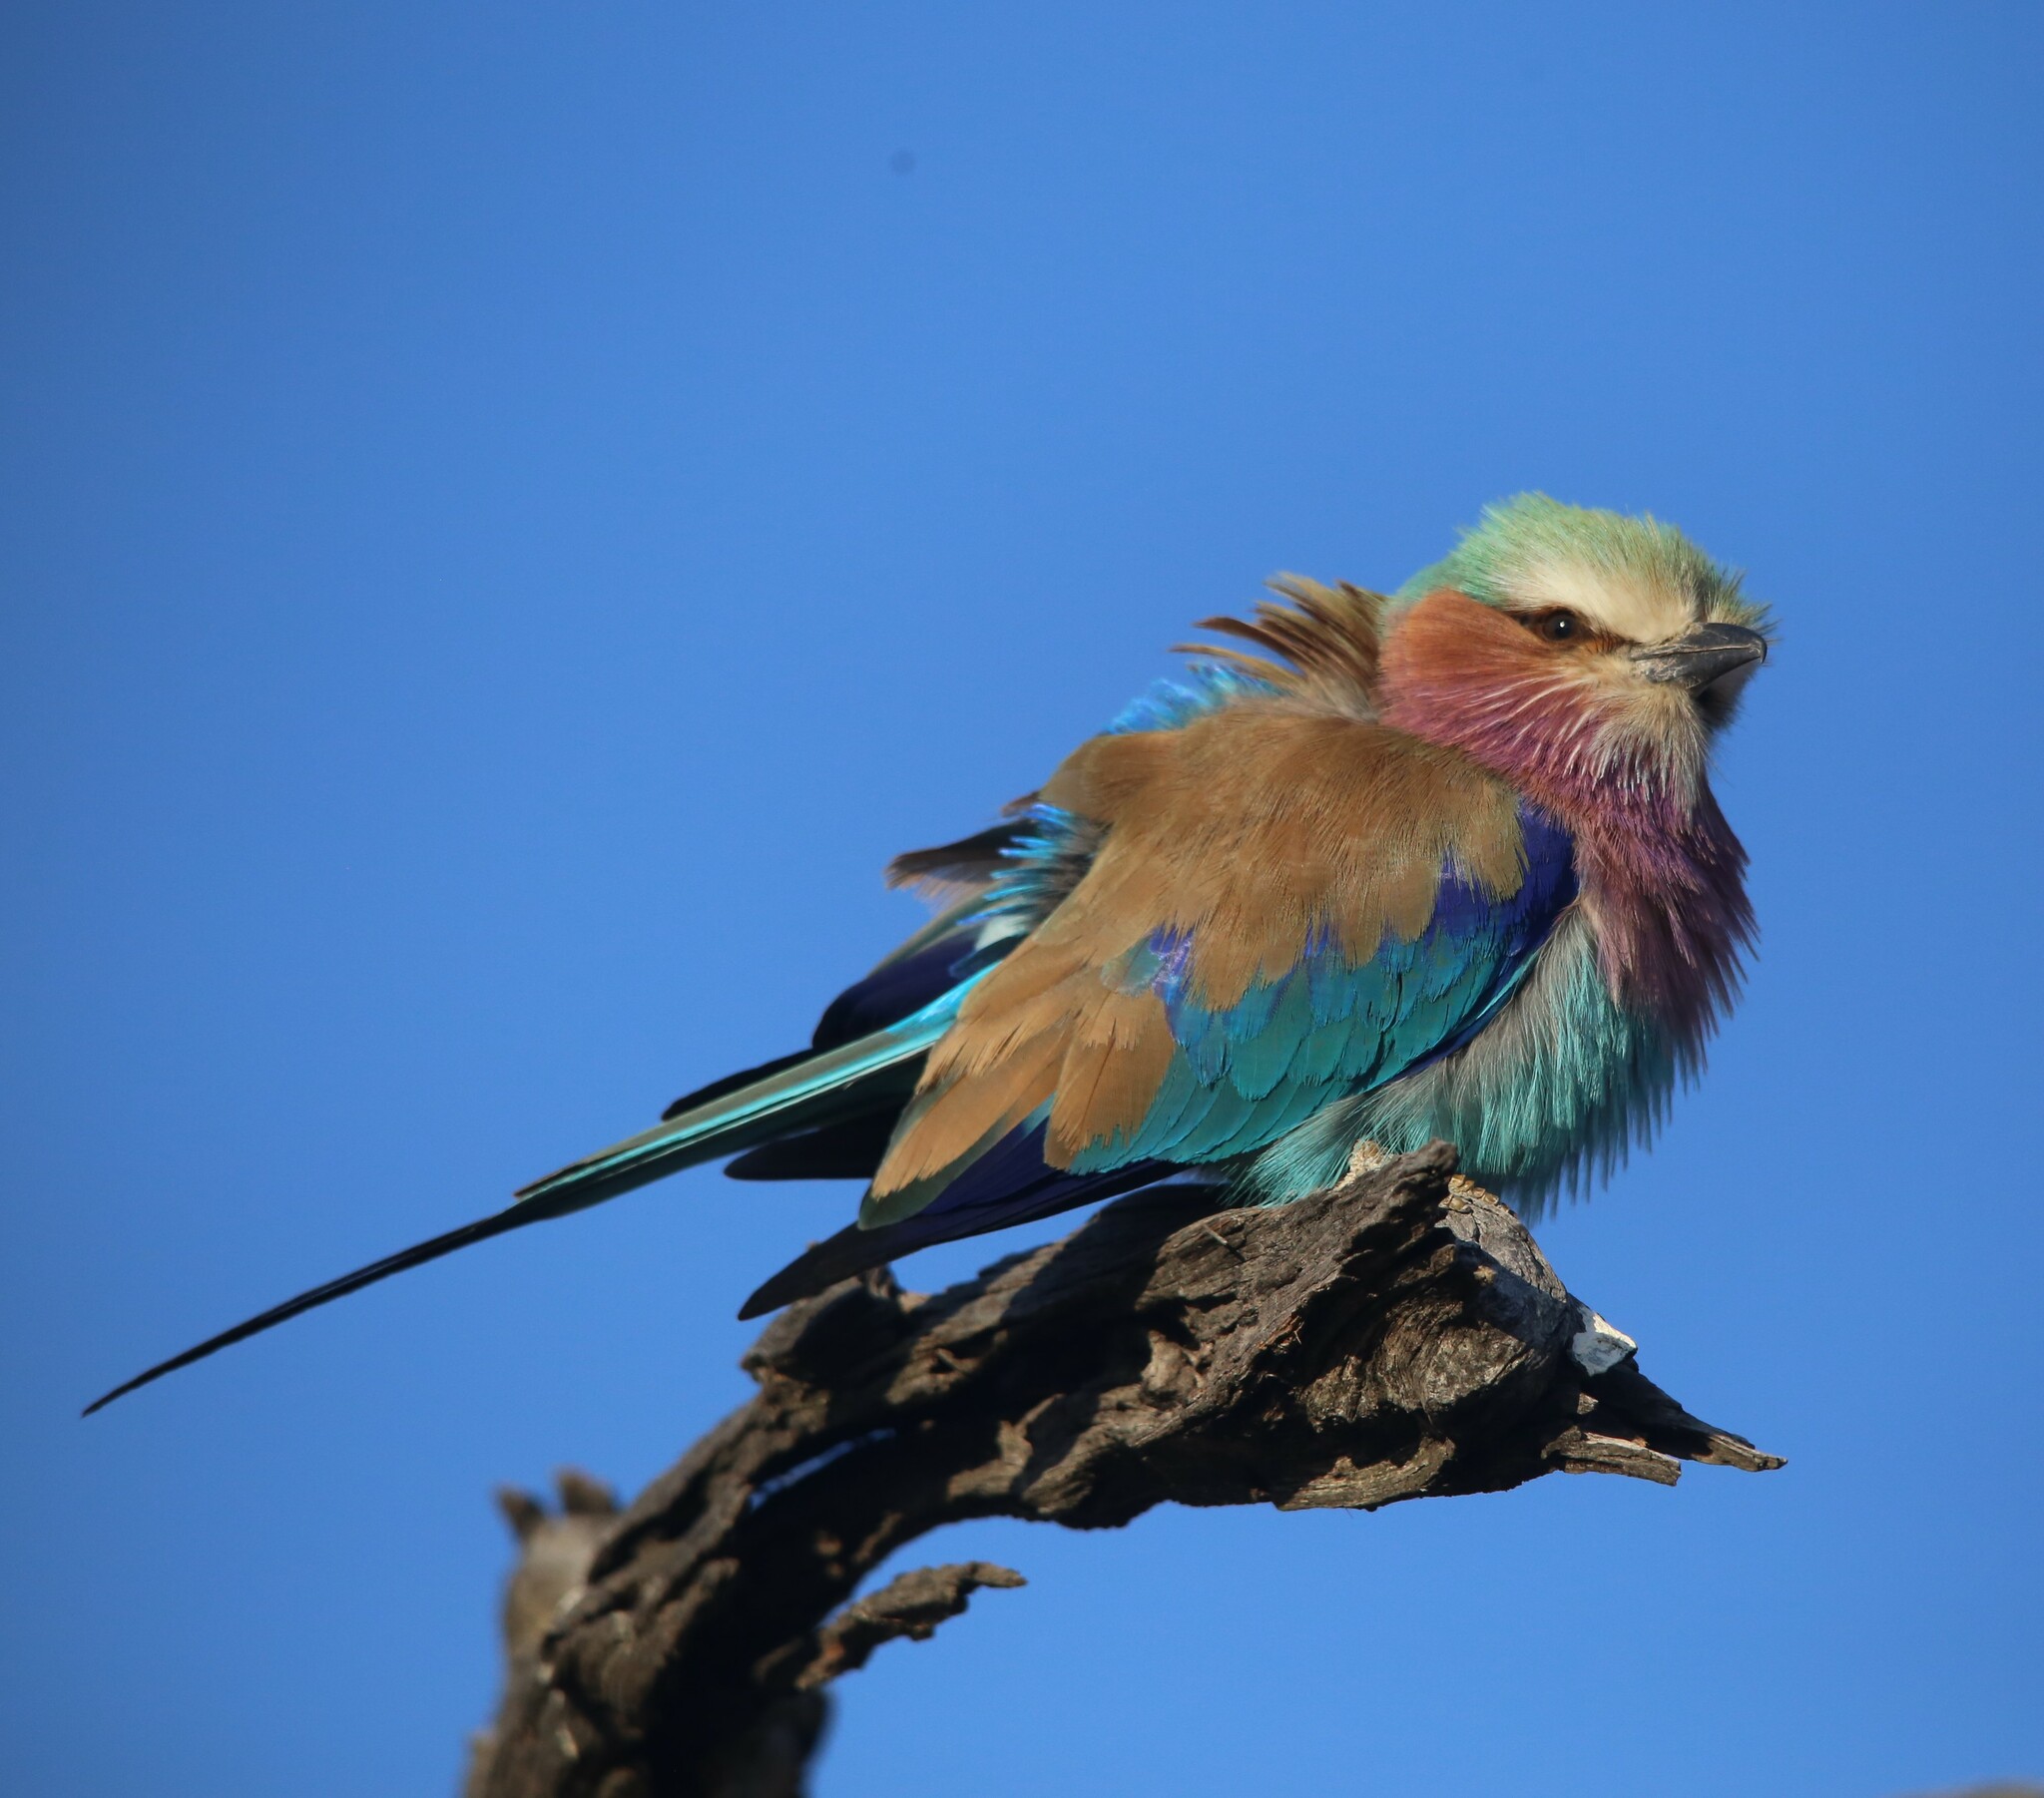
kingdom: Animalia
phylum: Chordata
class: Aves
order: Coraciiformes
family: Coraciidae
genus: Coracias
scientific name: Coracias caudatus
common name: Lilac-breasted roller
